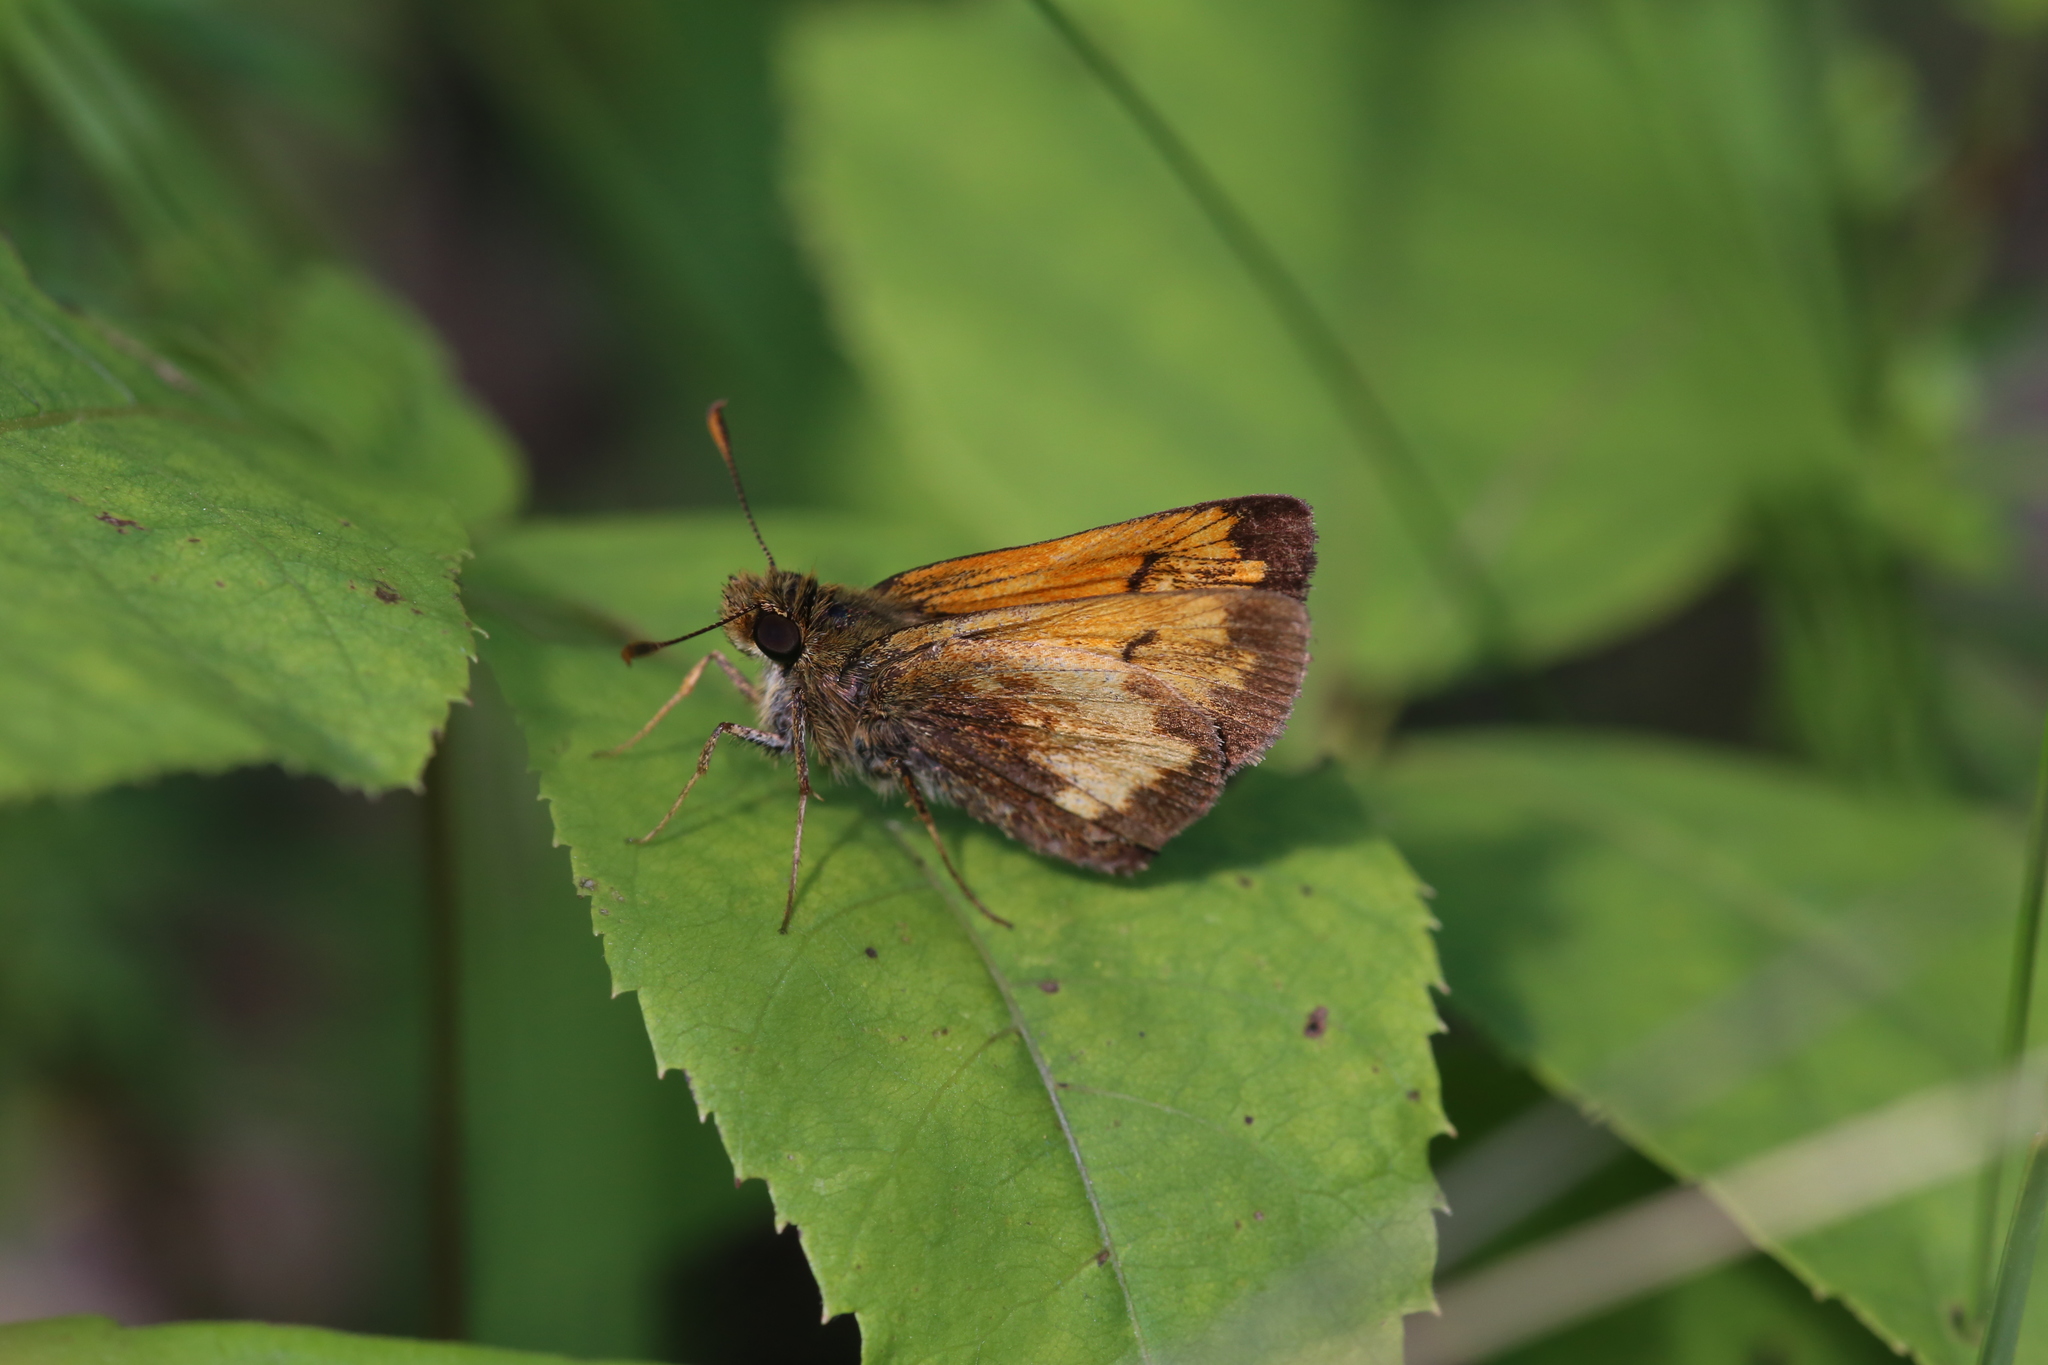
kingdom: Animalia
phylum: Arthropoda
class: Insecta
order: Lepidoptera
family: Hesperiidae
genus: Lon
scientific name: Lon hobomok
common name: Hobomok skipper
